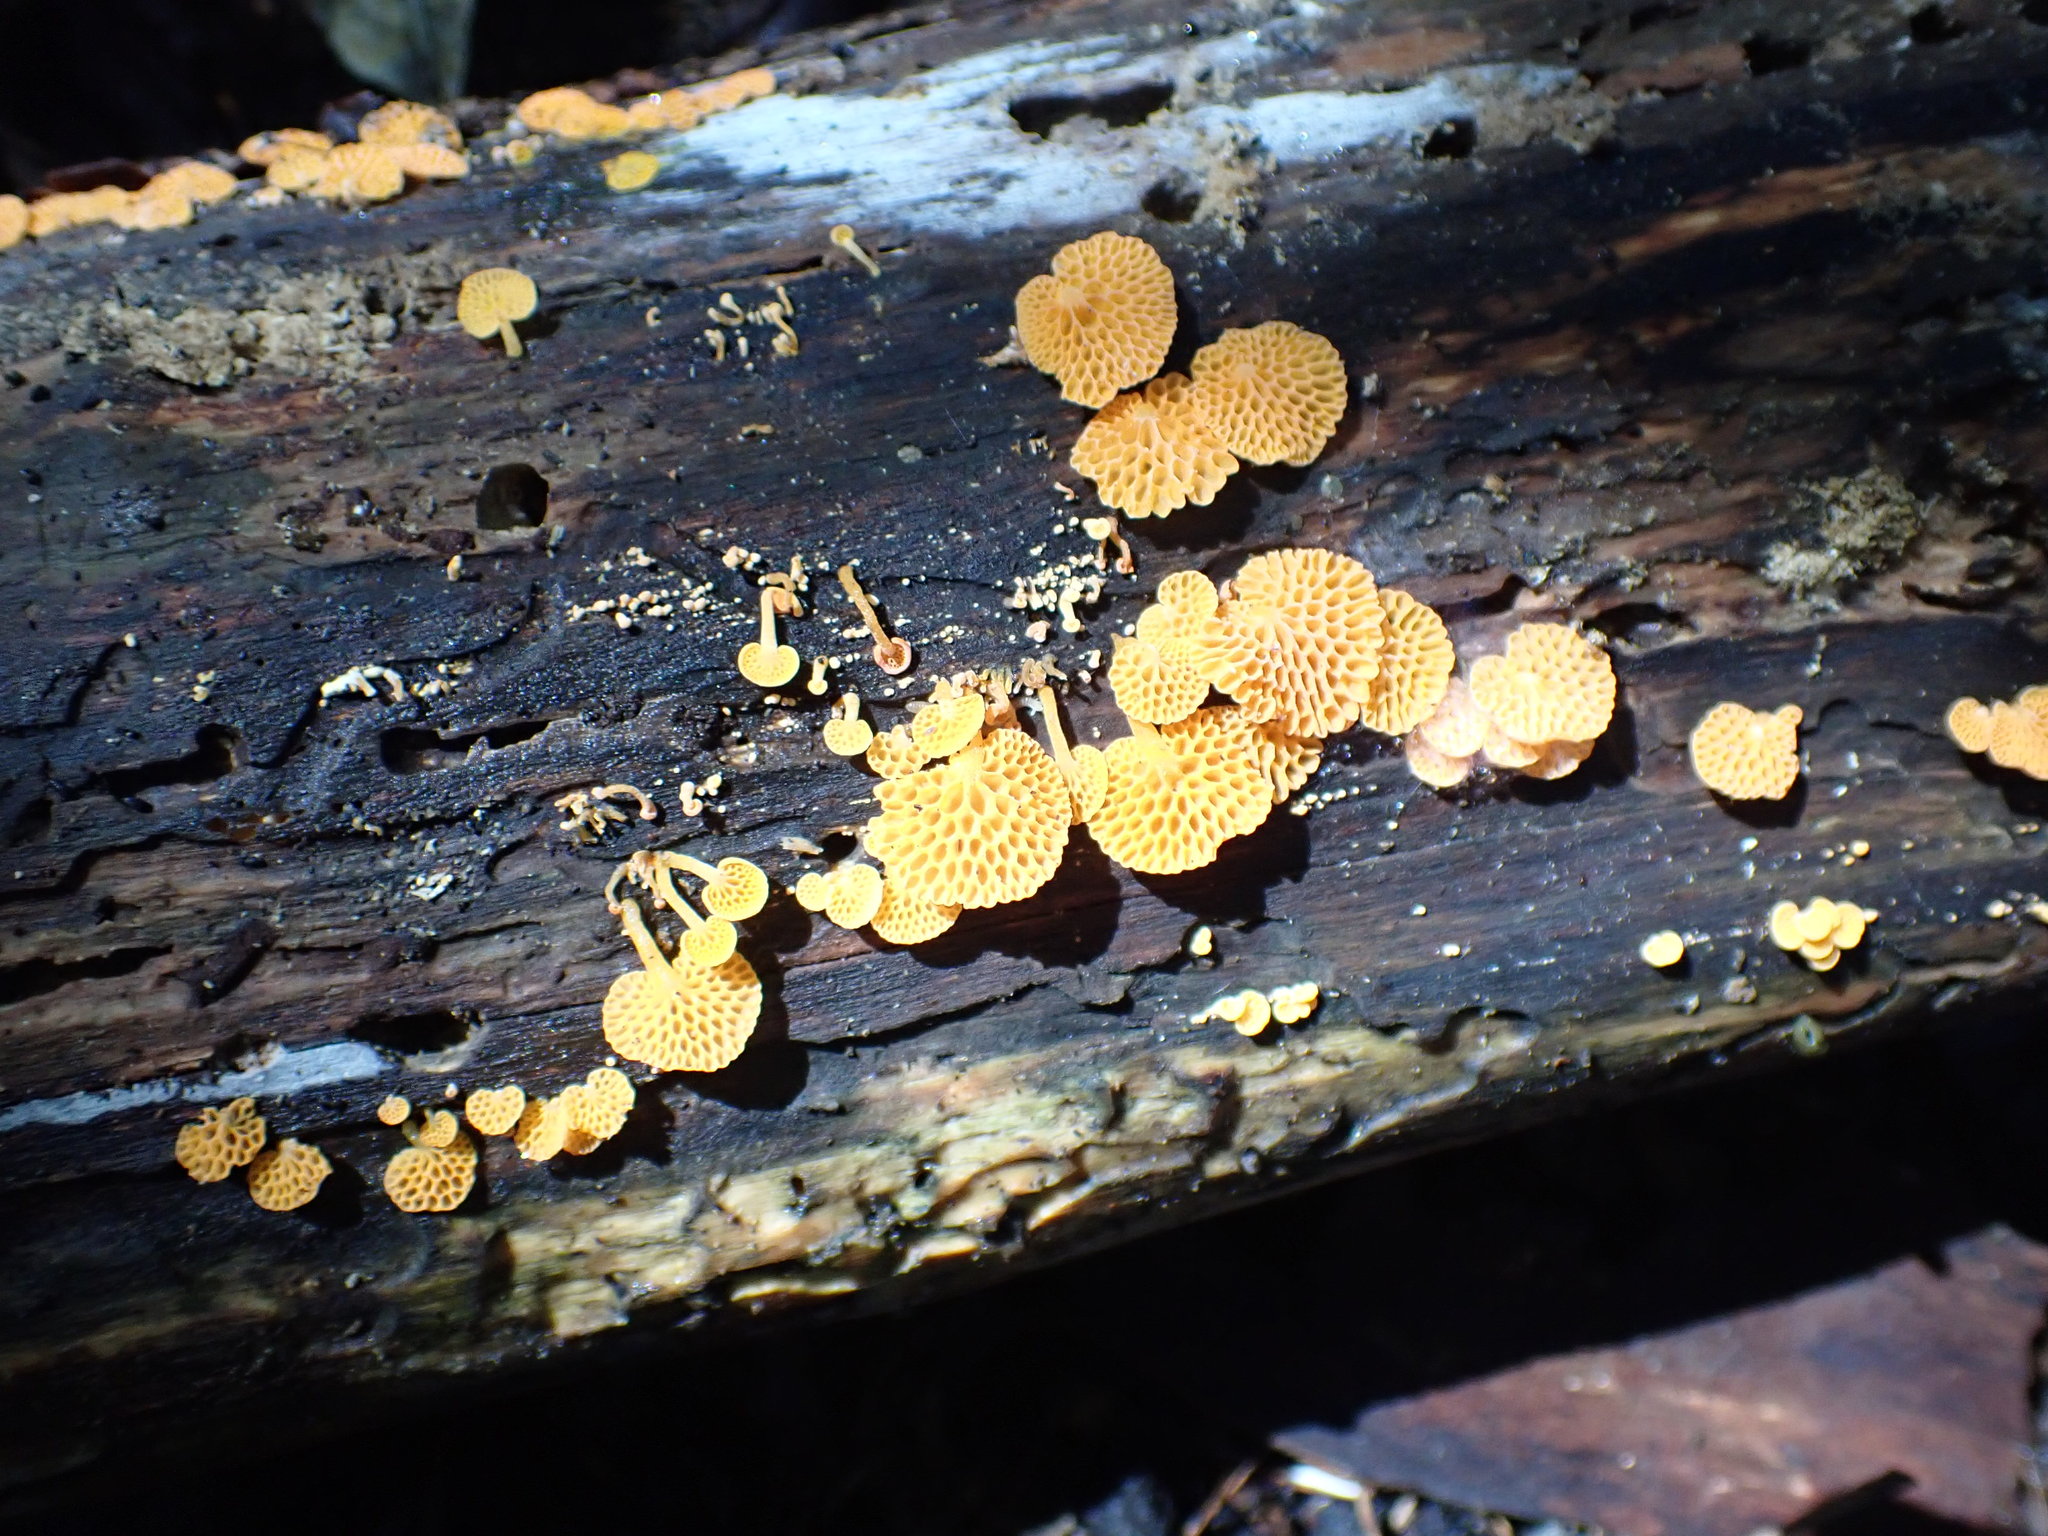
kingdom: Fungi
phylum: Basidiomycota
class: Agaricomycetes
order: Agaricales
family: Mycenaceae
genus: Favolaschia
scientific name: Favolaschia claudopus
